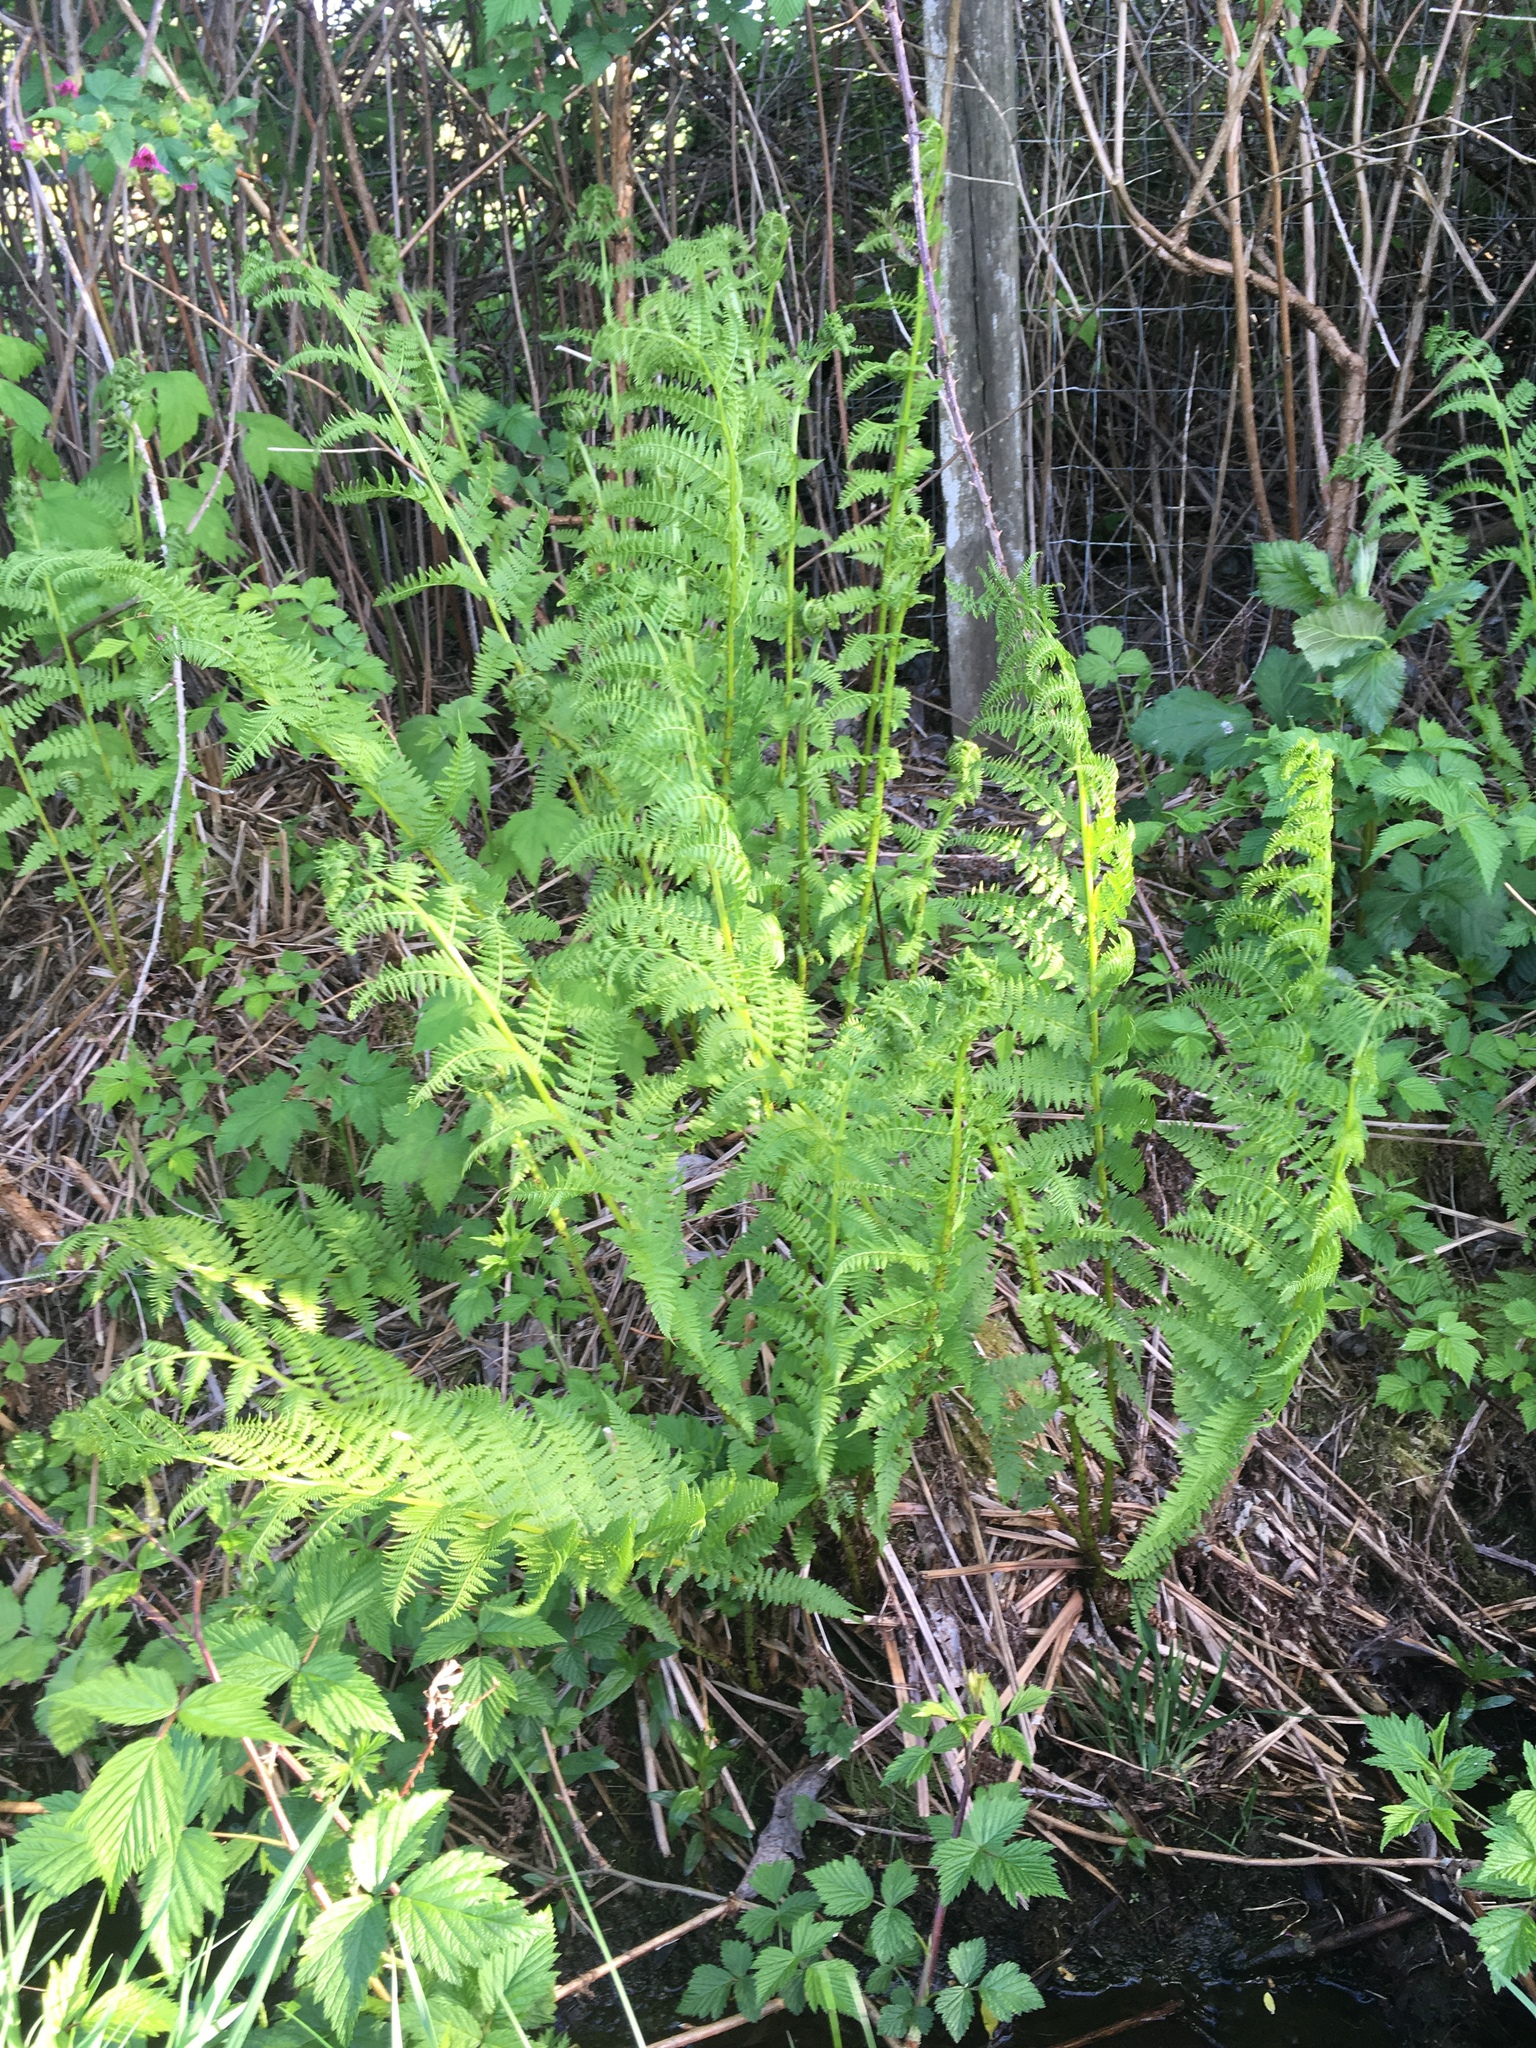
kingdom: Plantae
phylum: Tracheophyta
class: Polypodiopsida
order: Polypodiales
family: Athyriaceae
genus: Athyrium
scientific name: Athyrium filix-femina
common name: Lady fern
